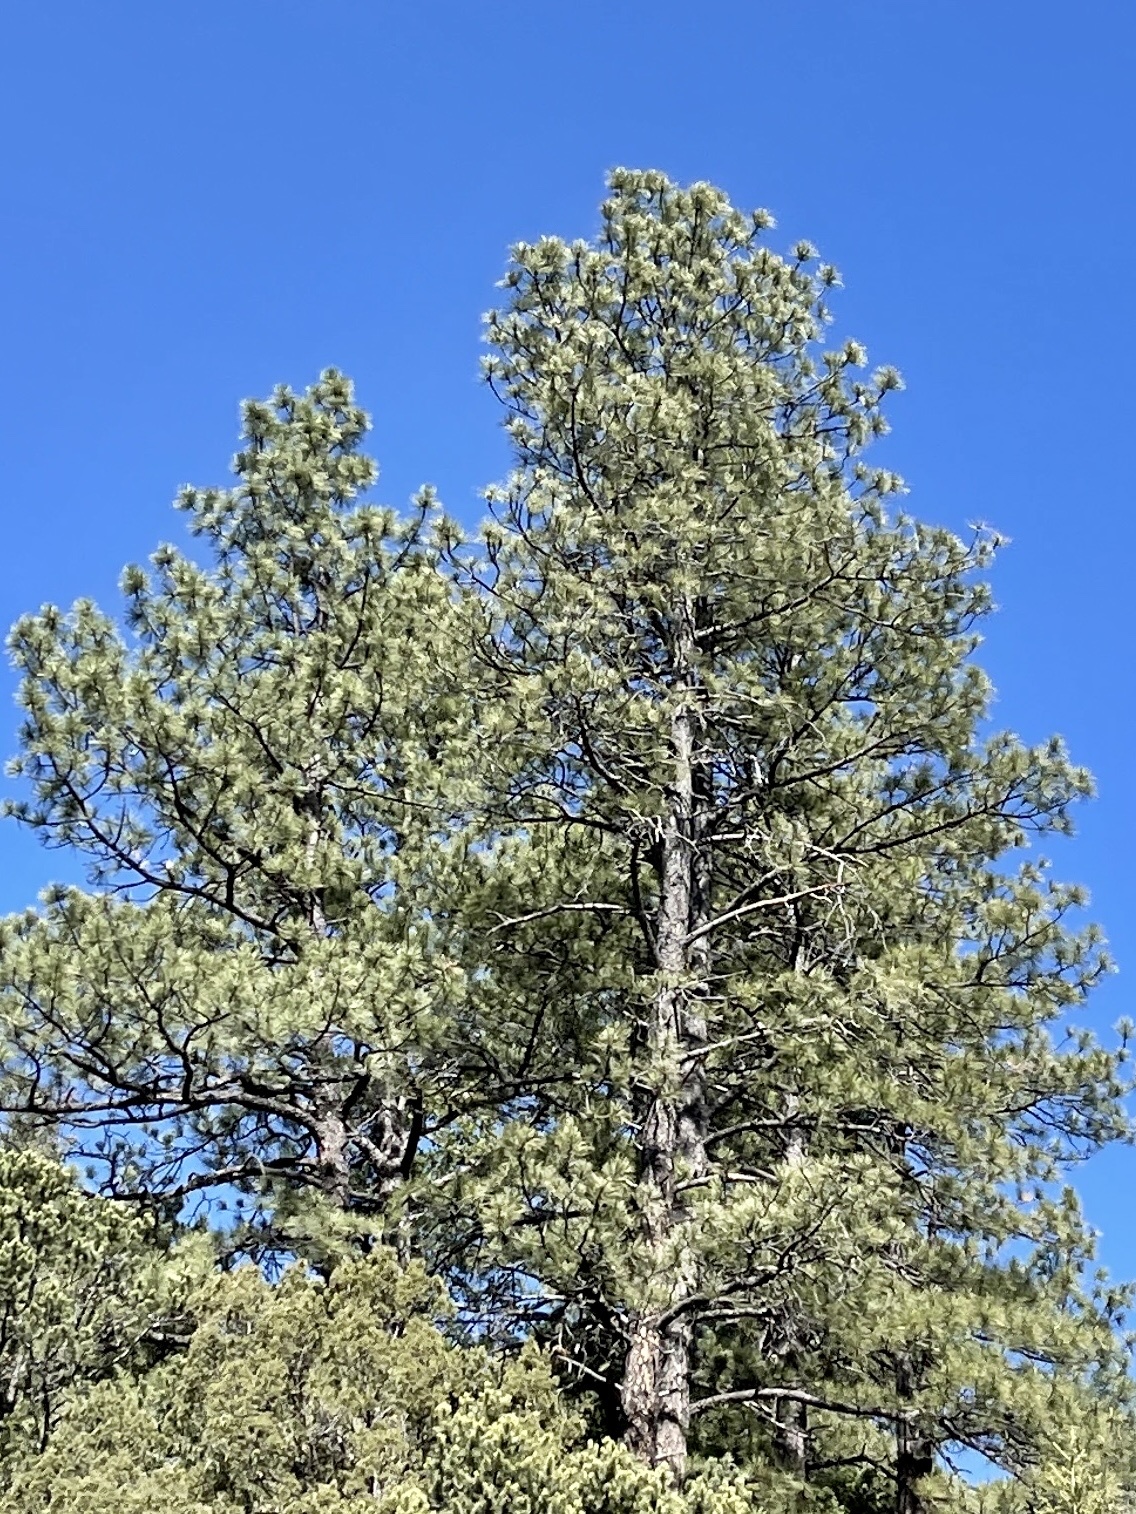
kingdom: Plantae
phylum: Tracheophyta
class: Pinopsida
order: Pinales
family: Pinaceae
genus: Pinus
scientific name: Pinus ponderosa
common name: Western yellow-pine
